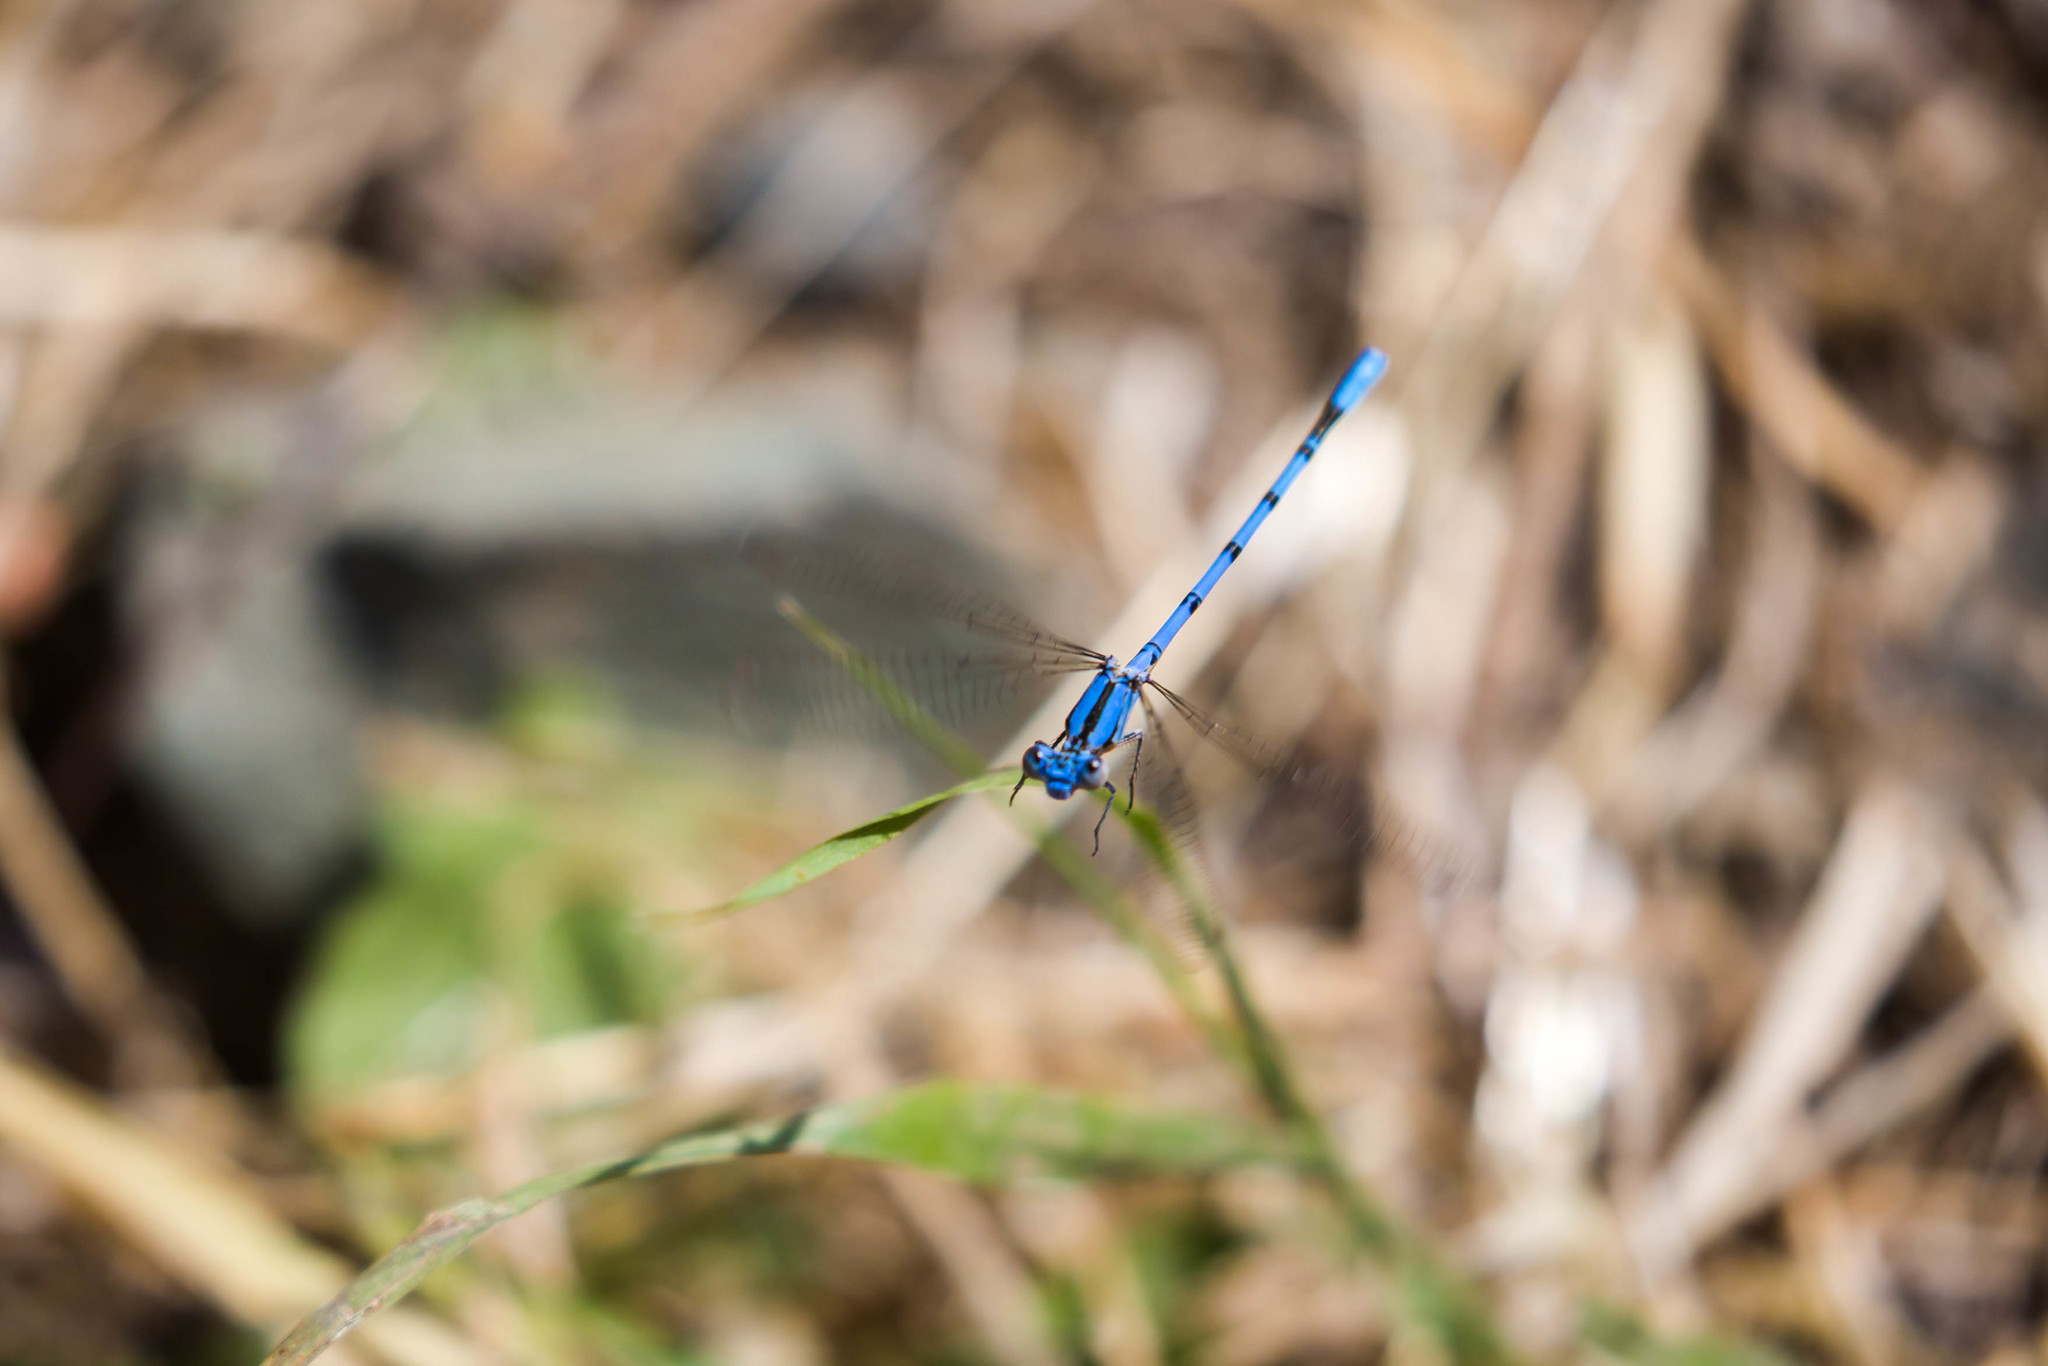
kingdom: Animalia
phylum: Arthropoda
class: Insecta
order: Odonata
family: Coenagrionidae
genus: Argia
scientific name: Argia vivida
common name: Vivid dancer
